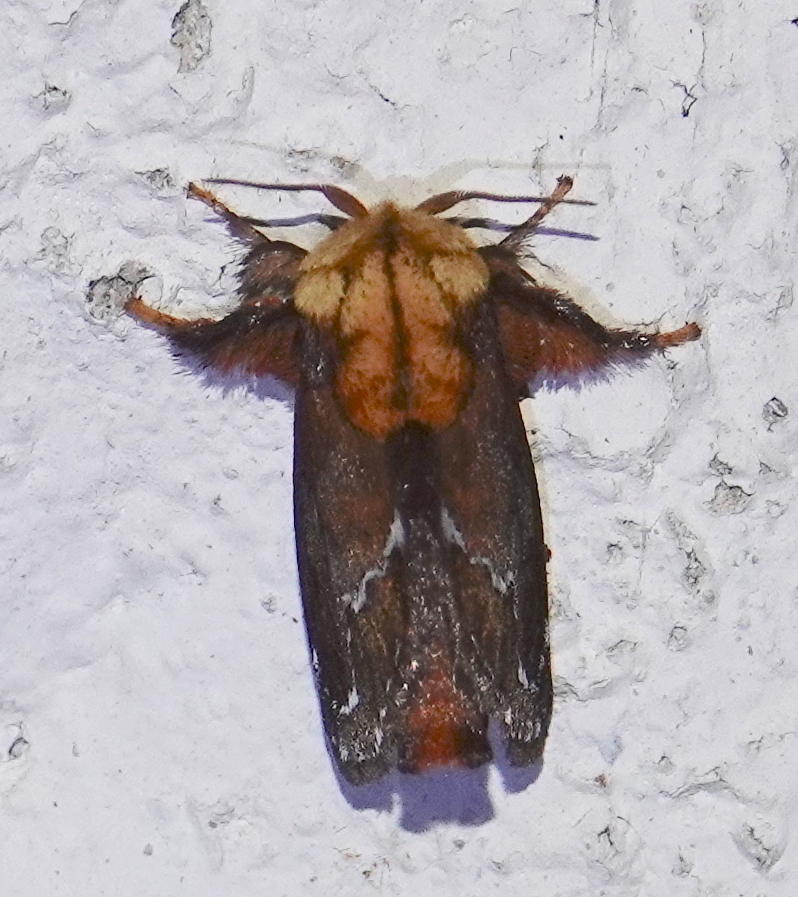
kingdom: Animalia
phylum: Arthropoda
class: Insecta
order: Lepidoptera
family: Limacodidae
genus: Miresa
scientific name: Miresa clarissa
